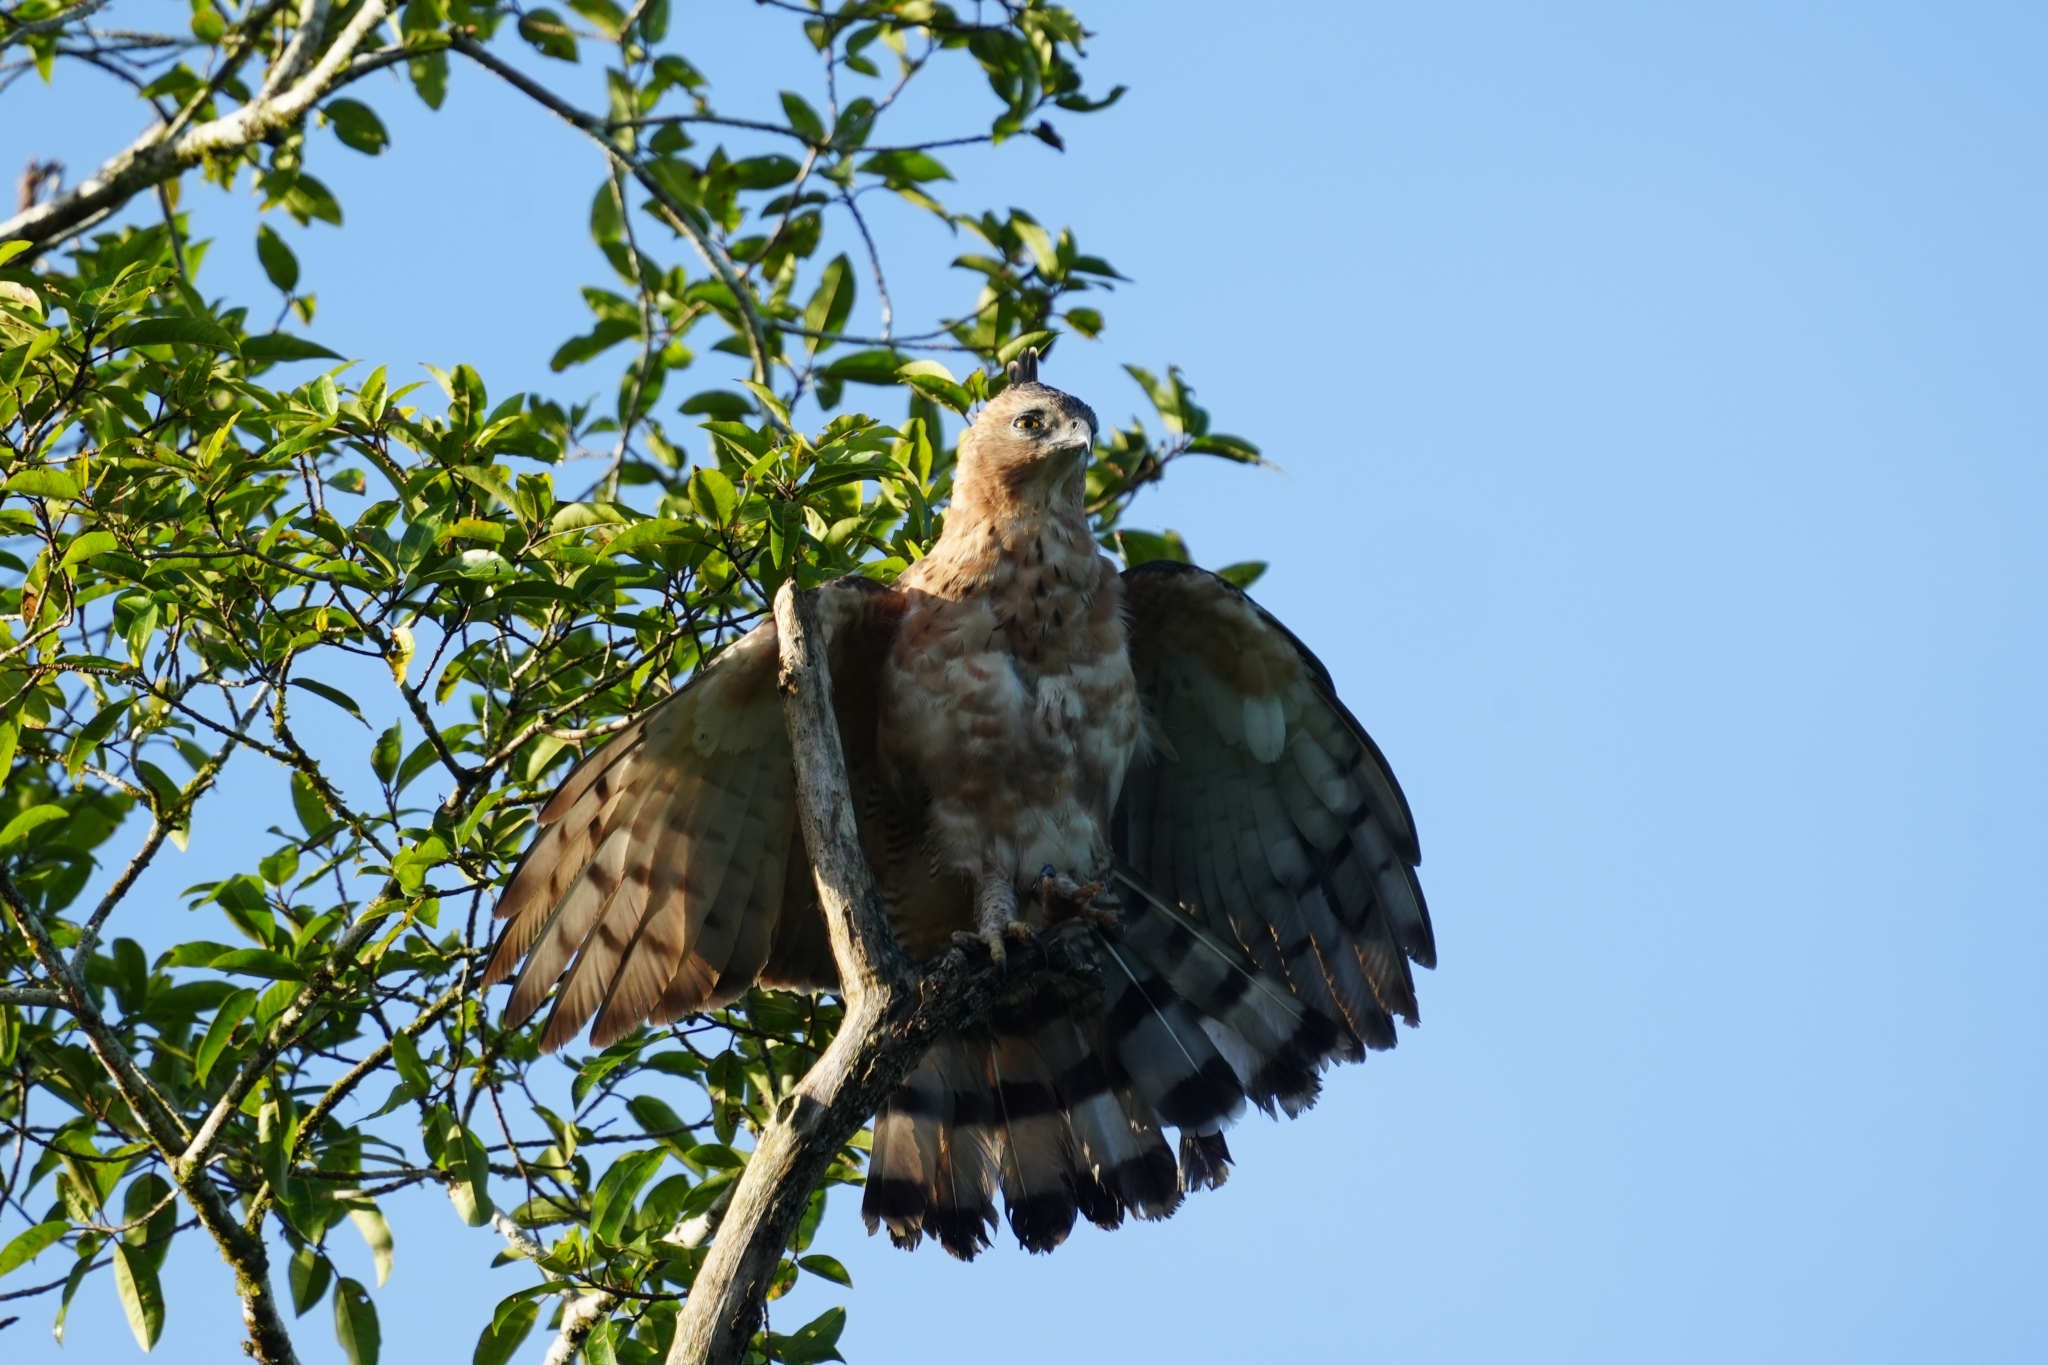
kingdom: Animalia
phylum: Chordata
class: Aves
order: Accipitriformes
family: Accipitridae
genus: Nisaetus
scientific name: Nisaetus nanus
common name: Wallace's hawk-eagle
